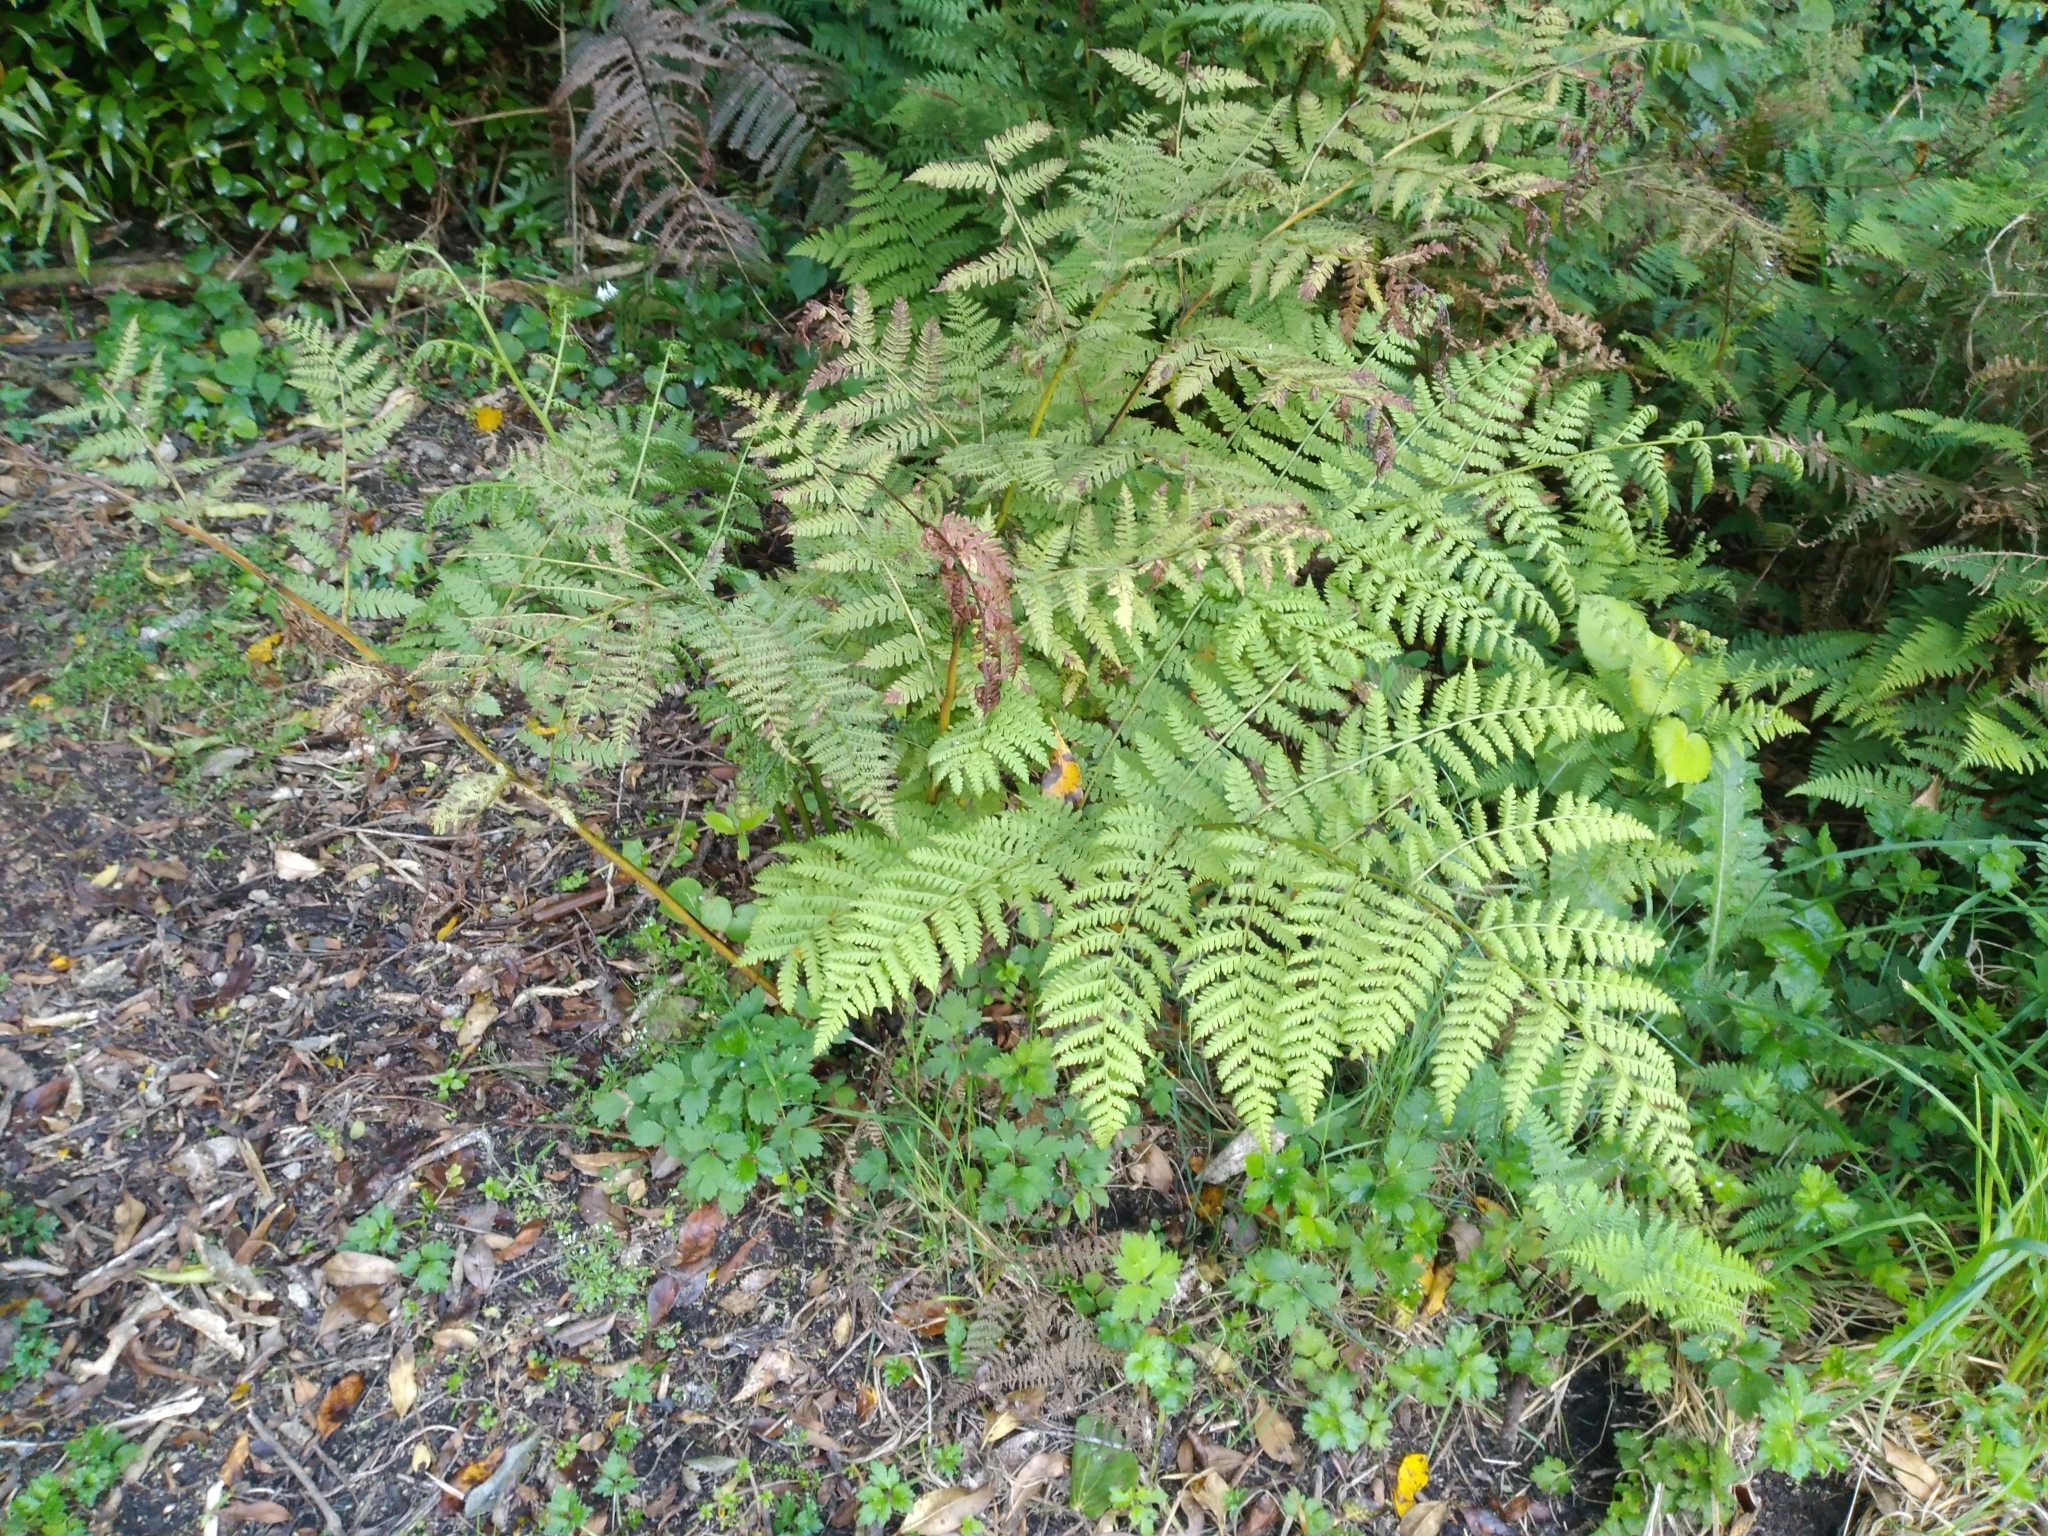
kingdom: Plantae
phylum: Tracheophyta
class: Polypodiopsida
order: Polypodiales
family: Athyriaceae
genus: Diplazium
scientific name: Diplazium australe
